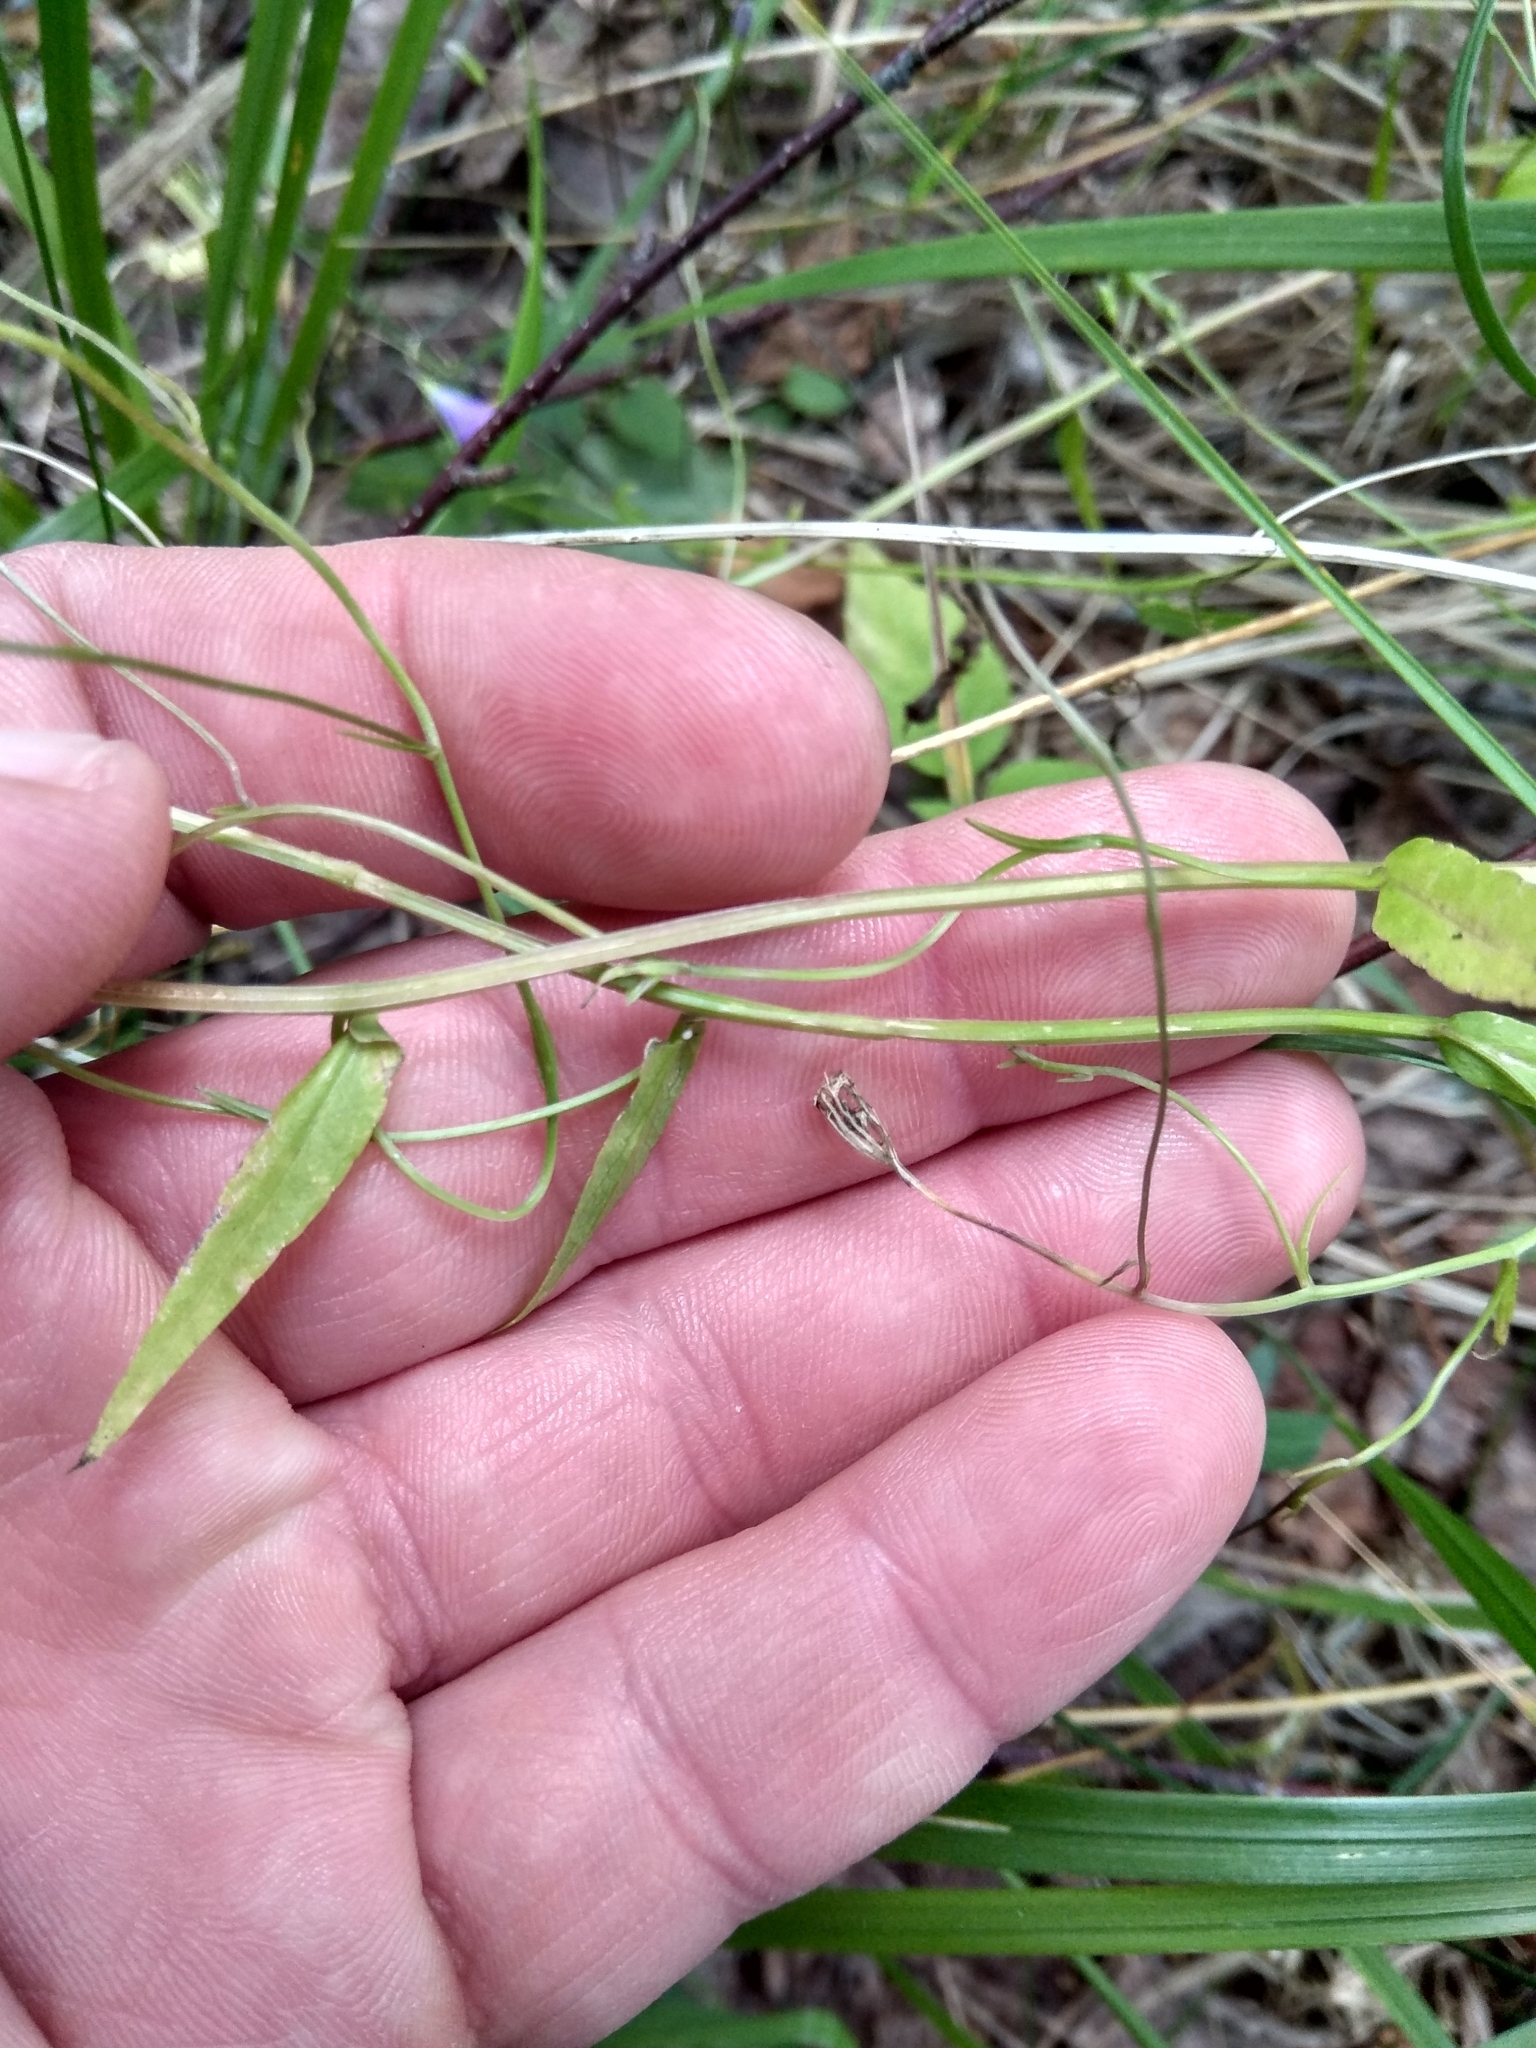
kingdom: Plantae
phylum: Tracheophyta
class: Magnoliopsida
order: Asterales
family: Campanulaceae
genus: Campanula
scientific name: Campanula patula
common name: Spreading bellflower
